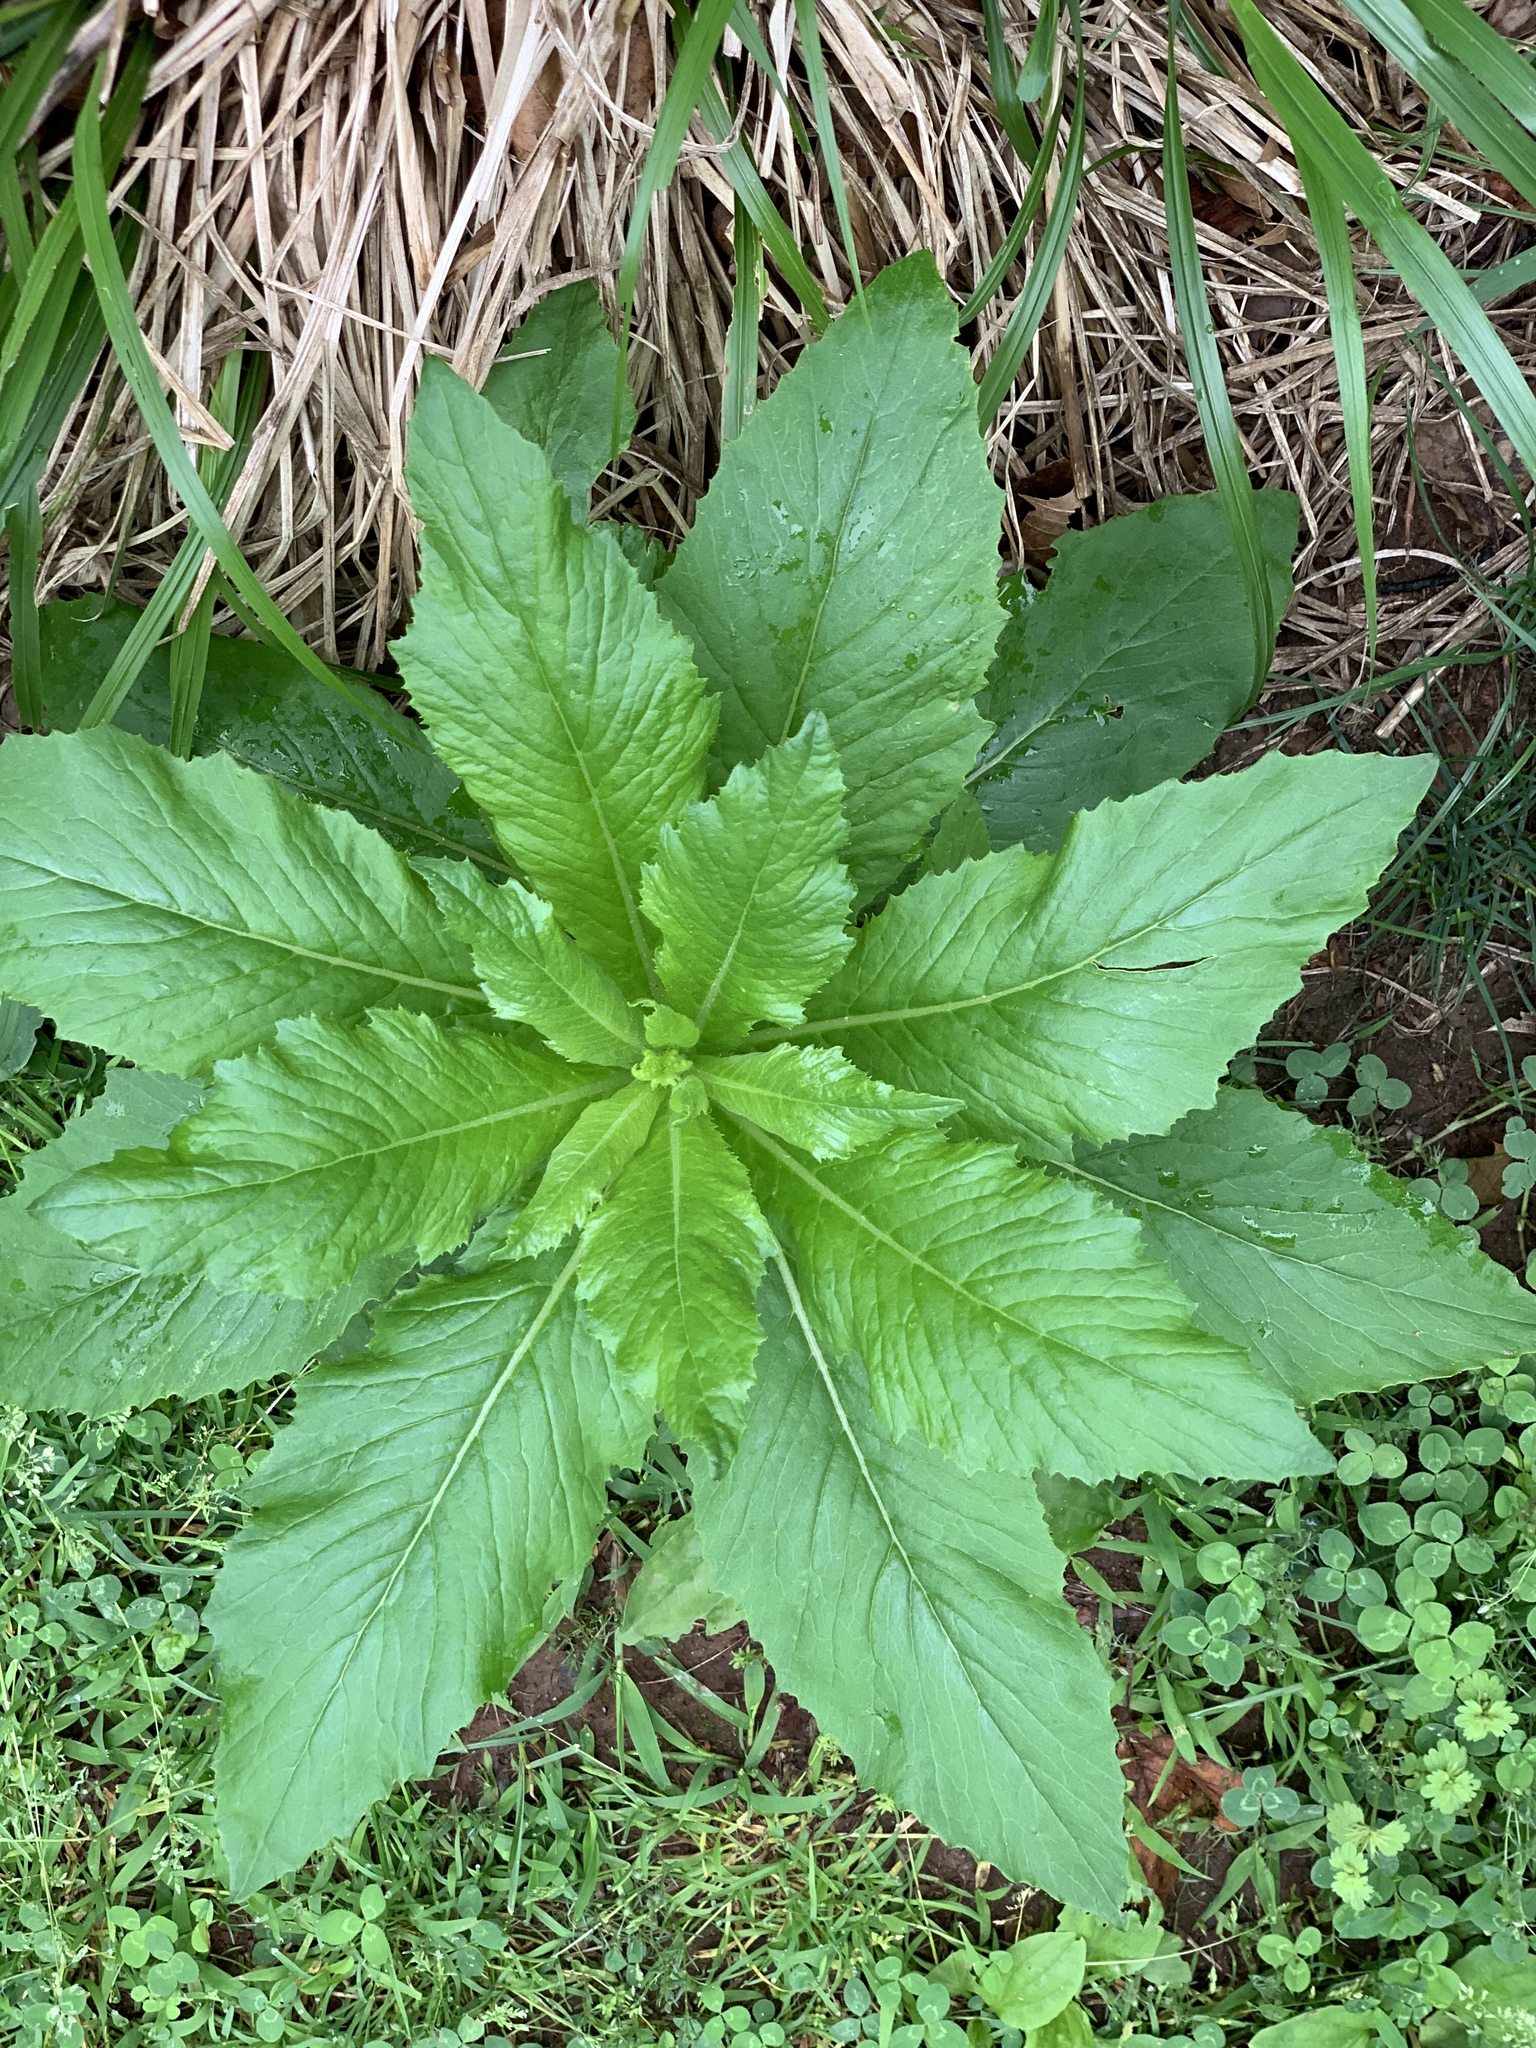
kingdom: Plantae
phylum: Tracheophyta
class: Magnoliopsida
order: Asterales
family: Asteraceae
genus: Erechtites
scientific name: Erechtites hieraciifolius
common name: American burnweed
